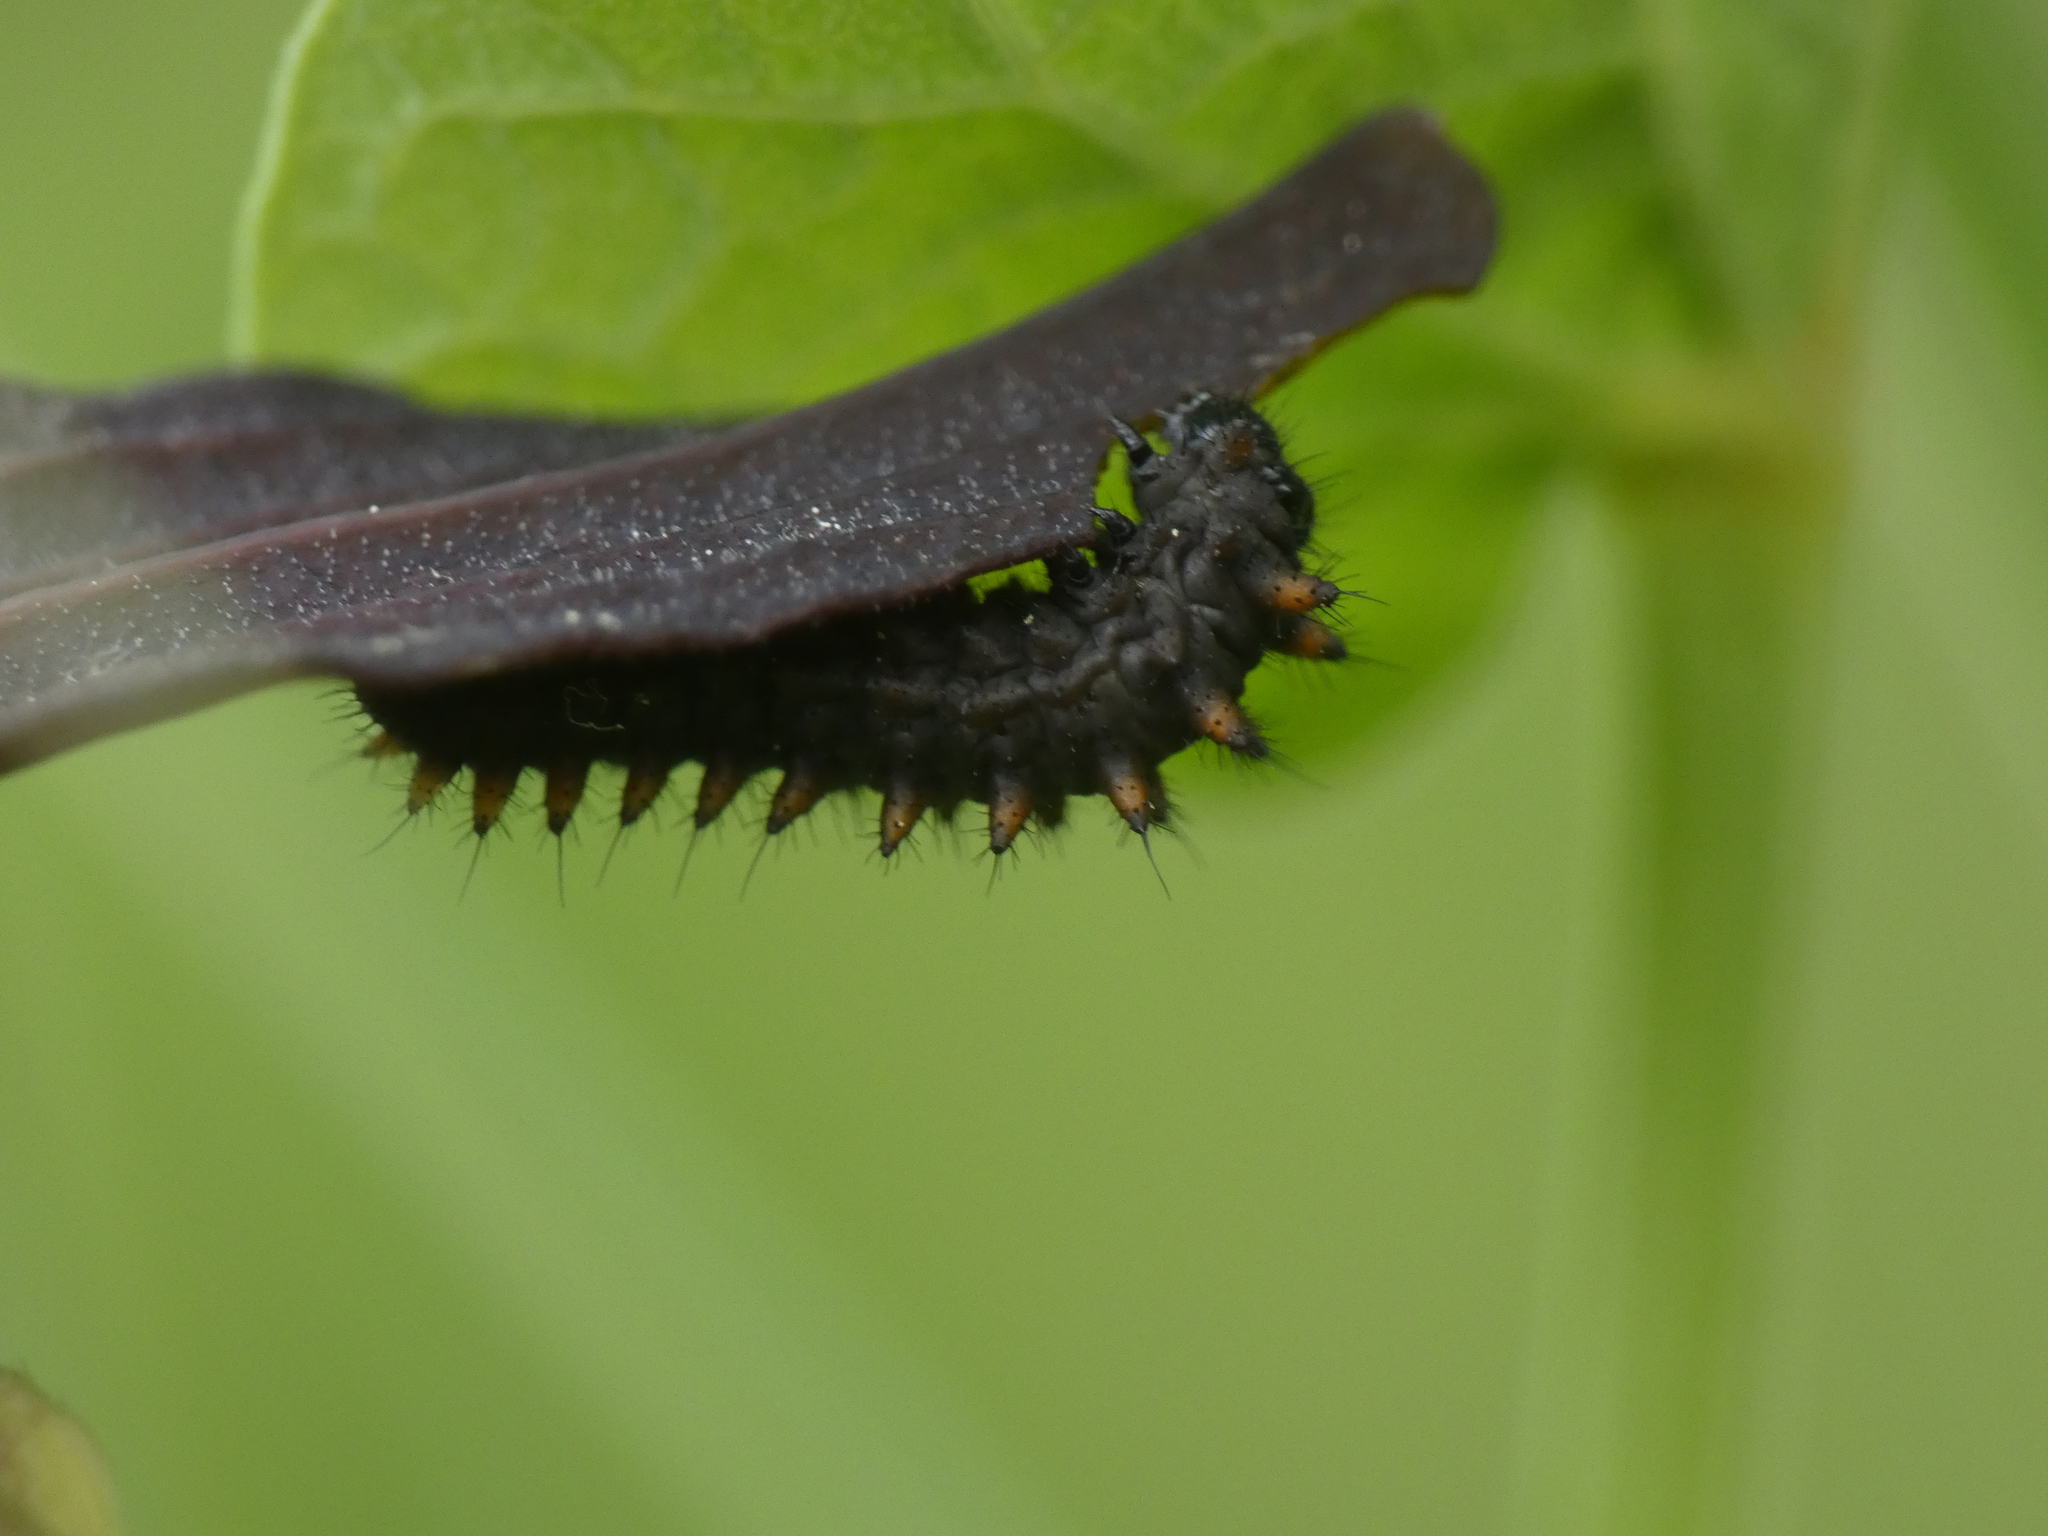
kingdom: Animalia
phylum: Arthropoda
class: Insecta
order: Lepidoptera
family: Papilionidae
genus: Zerynthia
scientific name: Zerynthia polyxena
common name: Southern festoon
